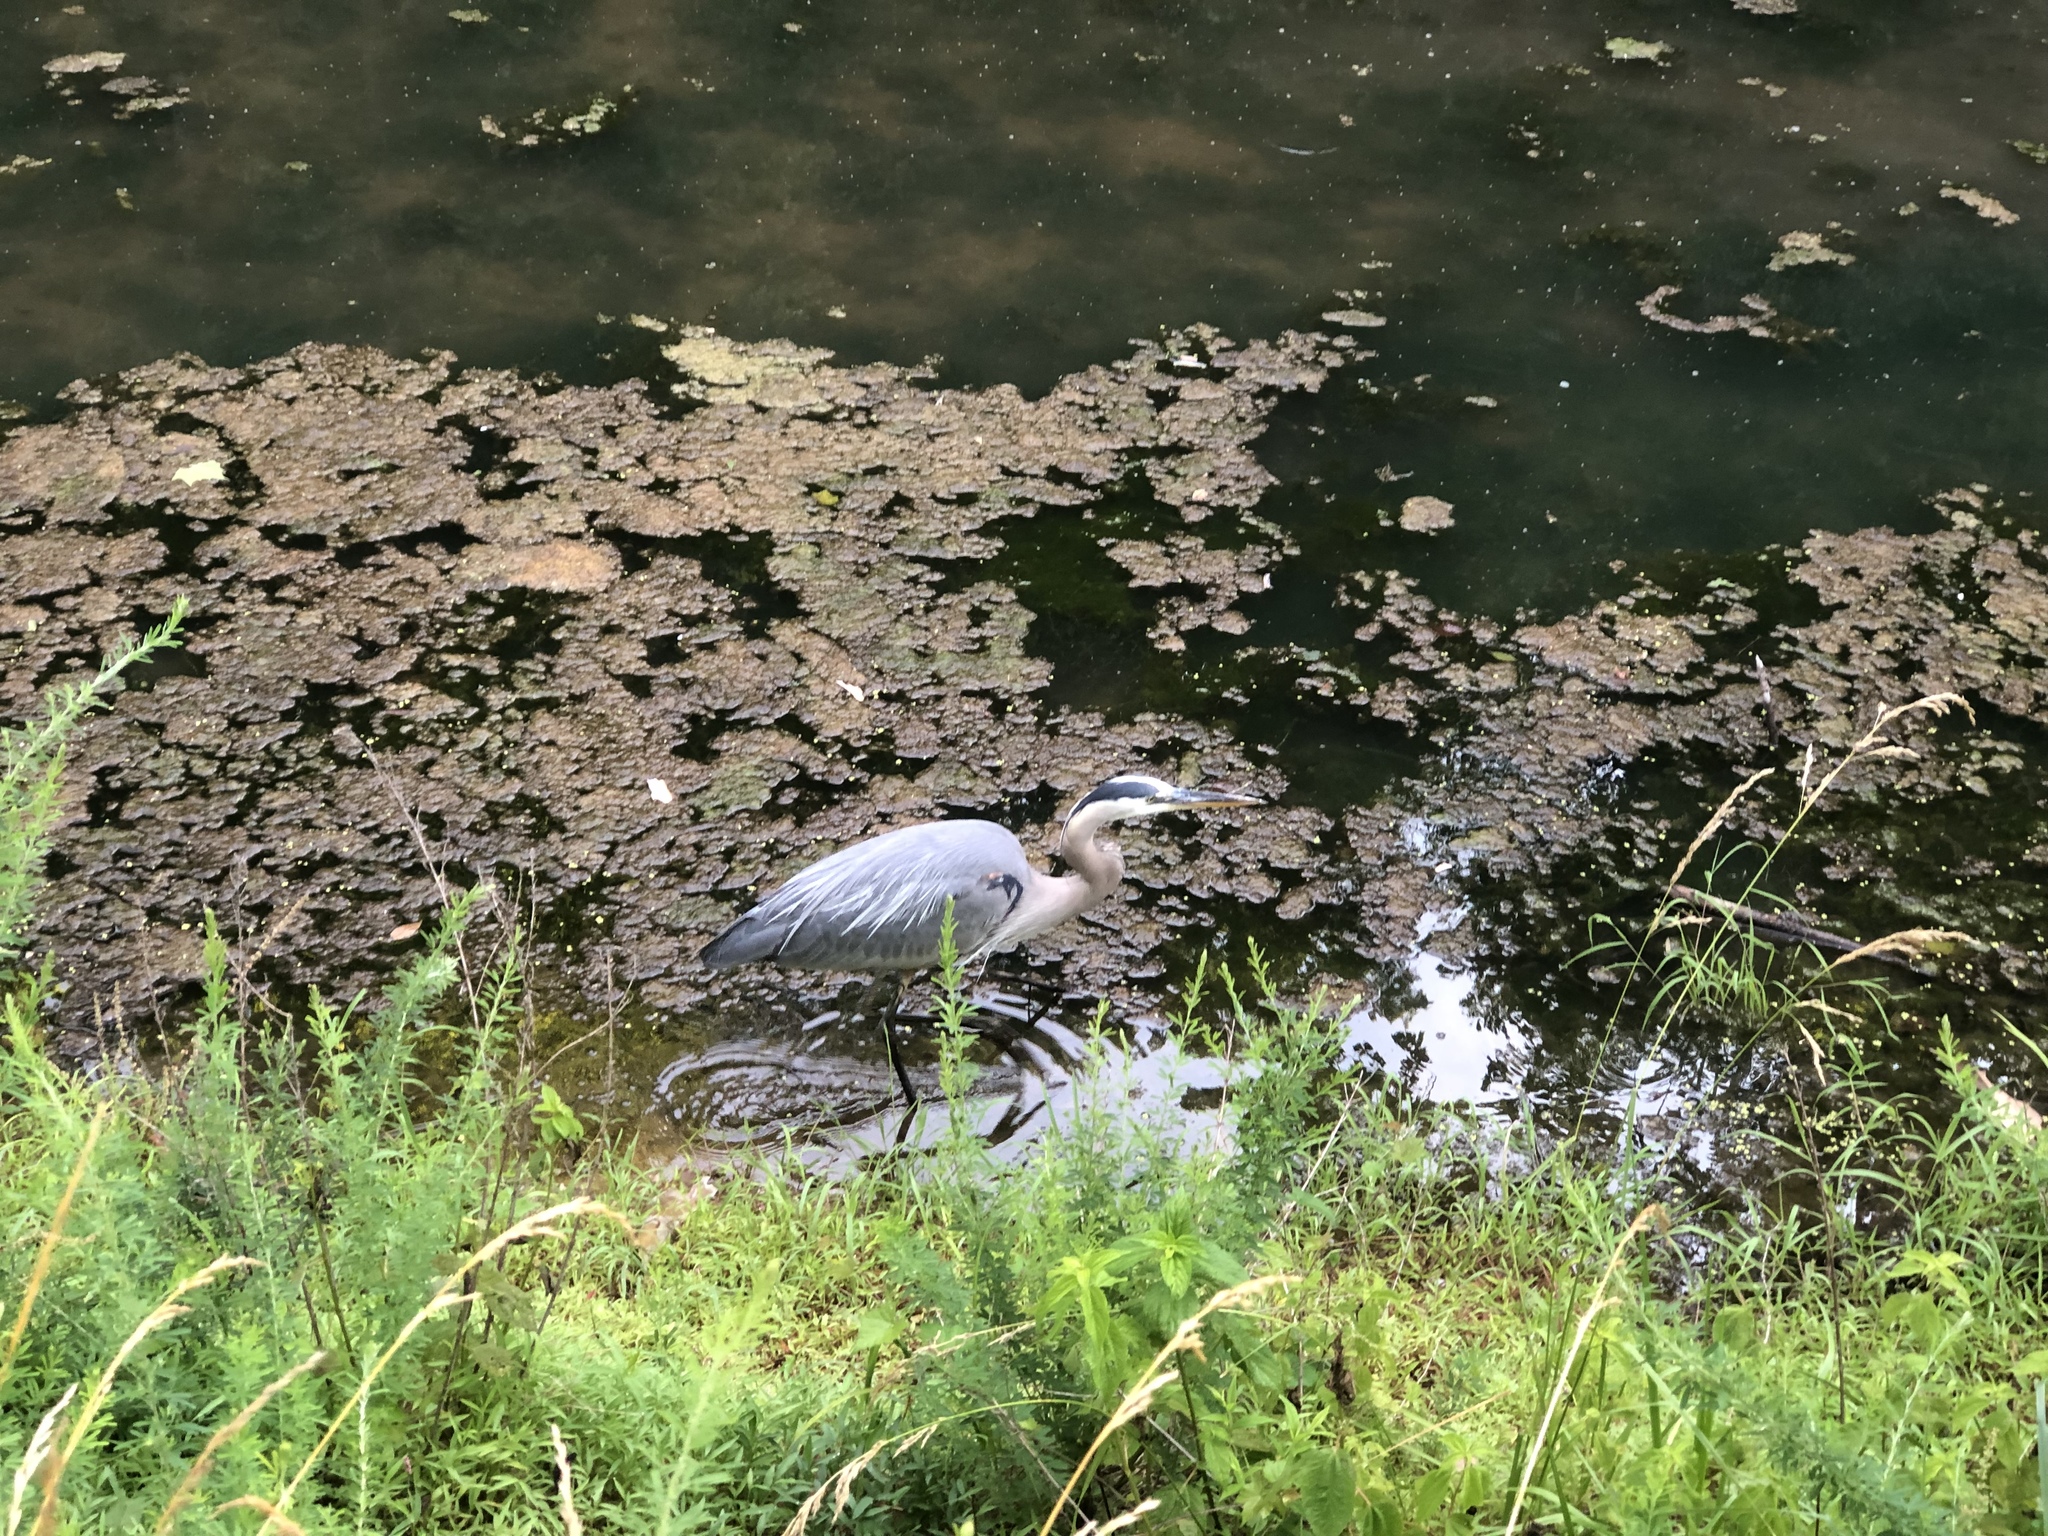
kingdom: Animalia
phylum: Chordata
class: Aves
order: Pelecaniformes
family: Ardeidae
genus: Ardea
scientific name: Ardea herodias
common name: Great blue heron
